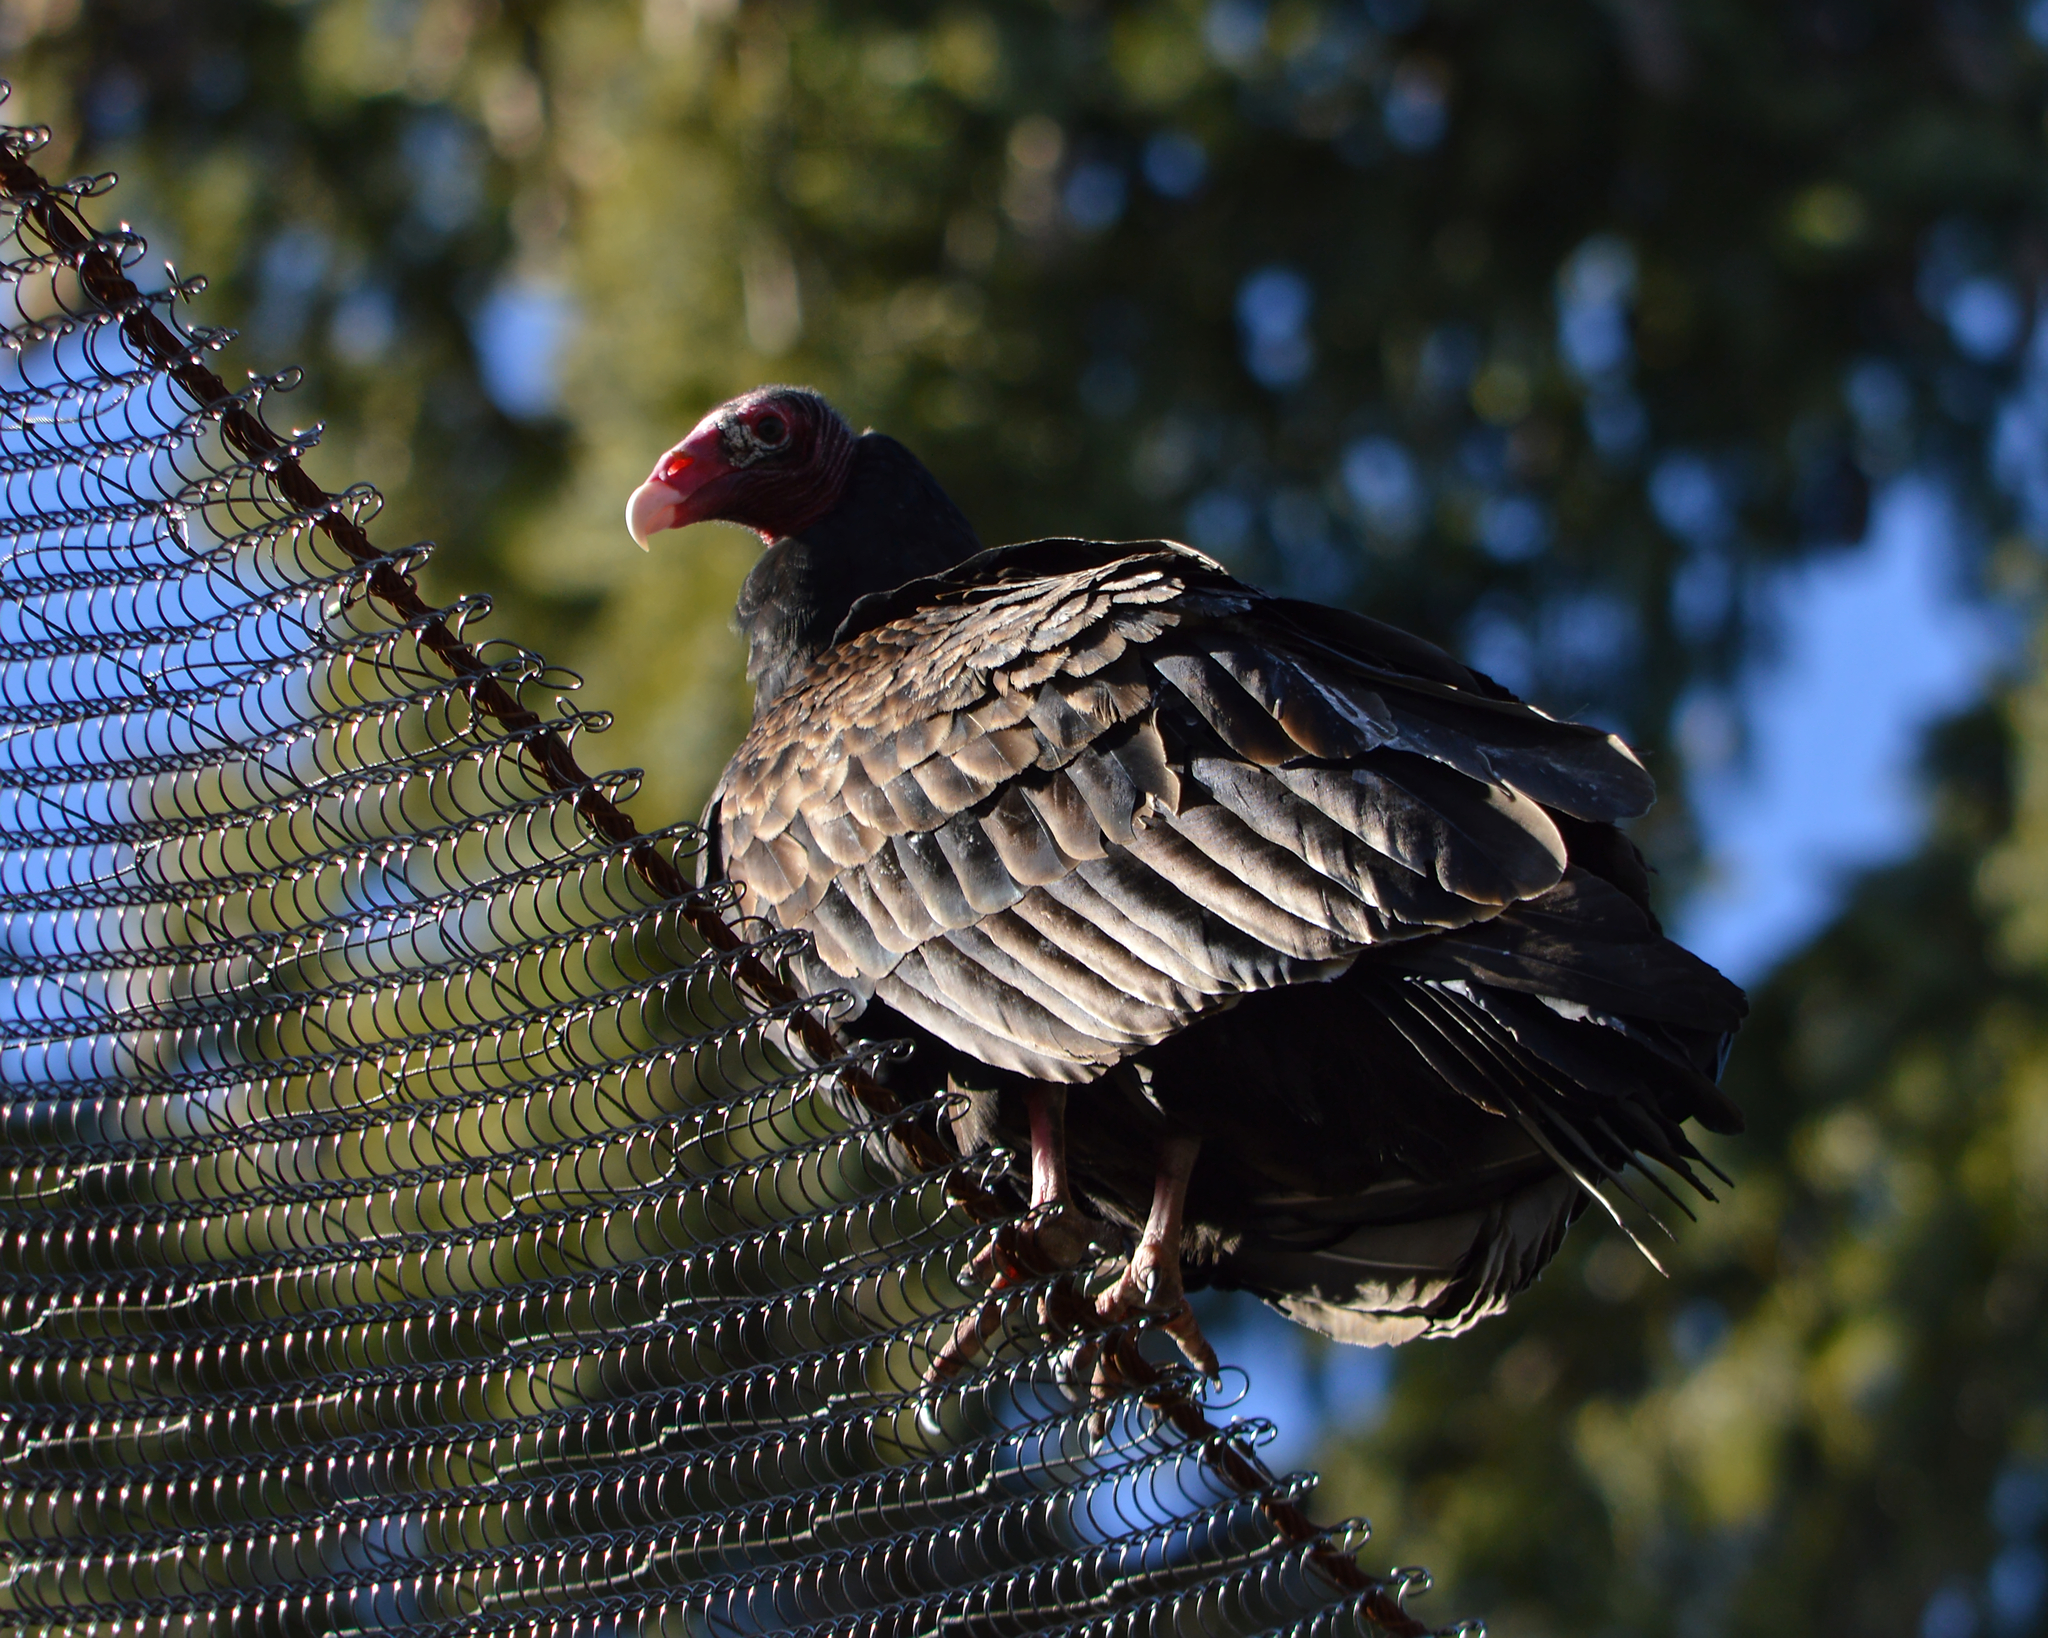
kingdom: Animalia
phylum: Chordata
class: Aves
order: Accipitriformes
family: Cathartidae
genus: Cathartes
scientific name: Cathartes aura
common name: Turkey vulture
